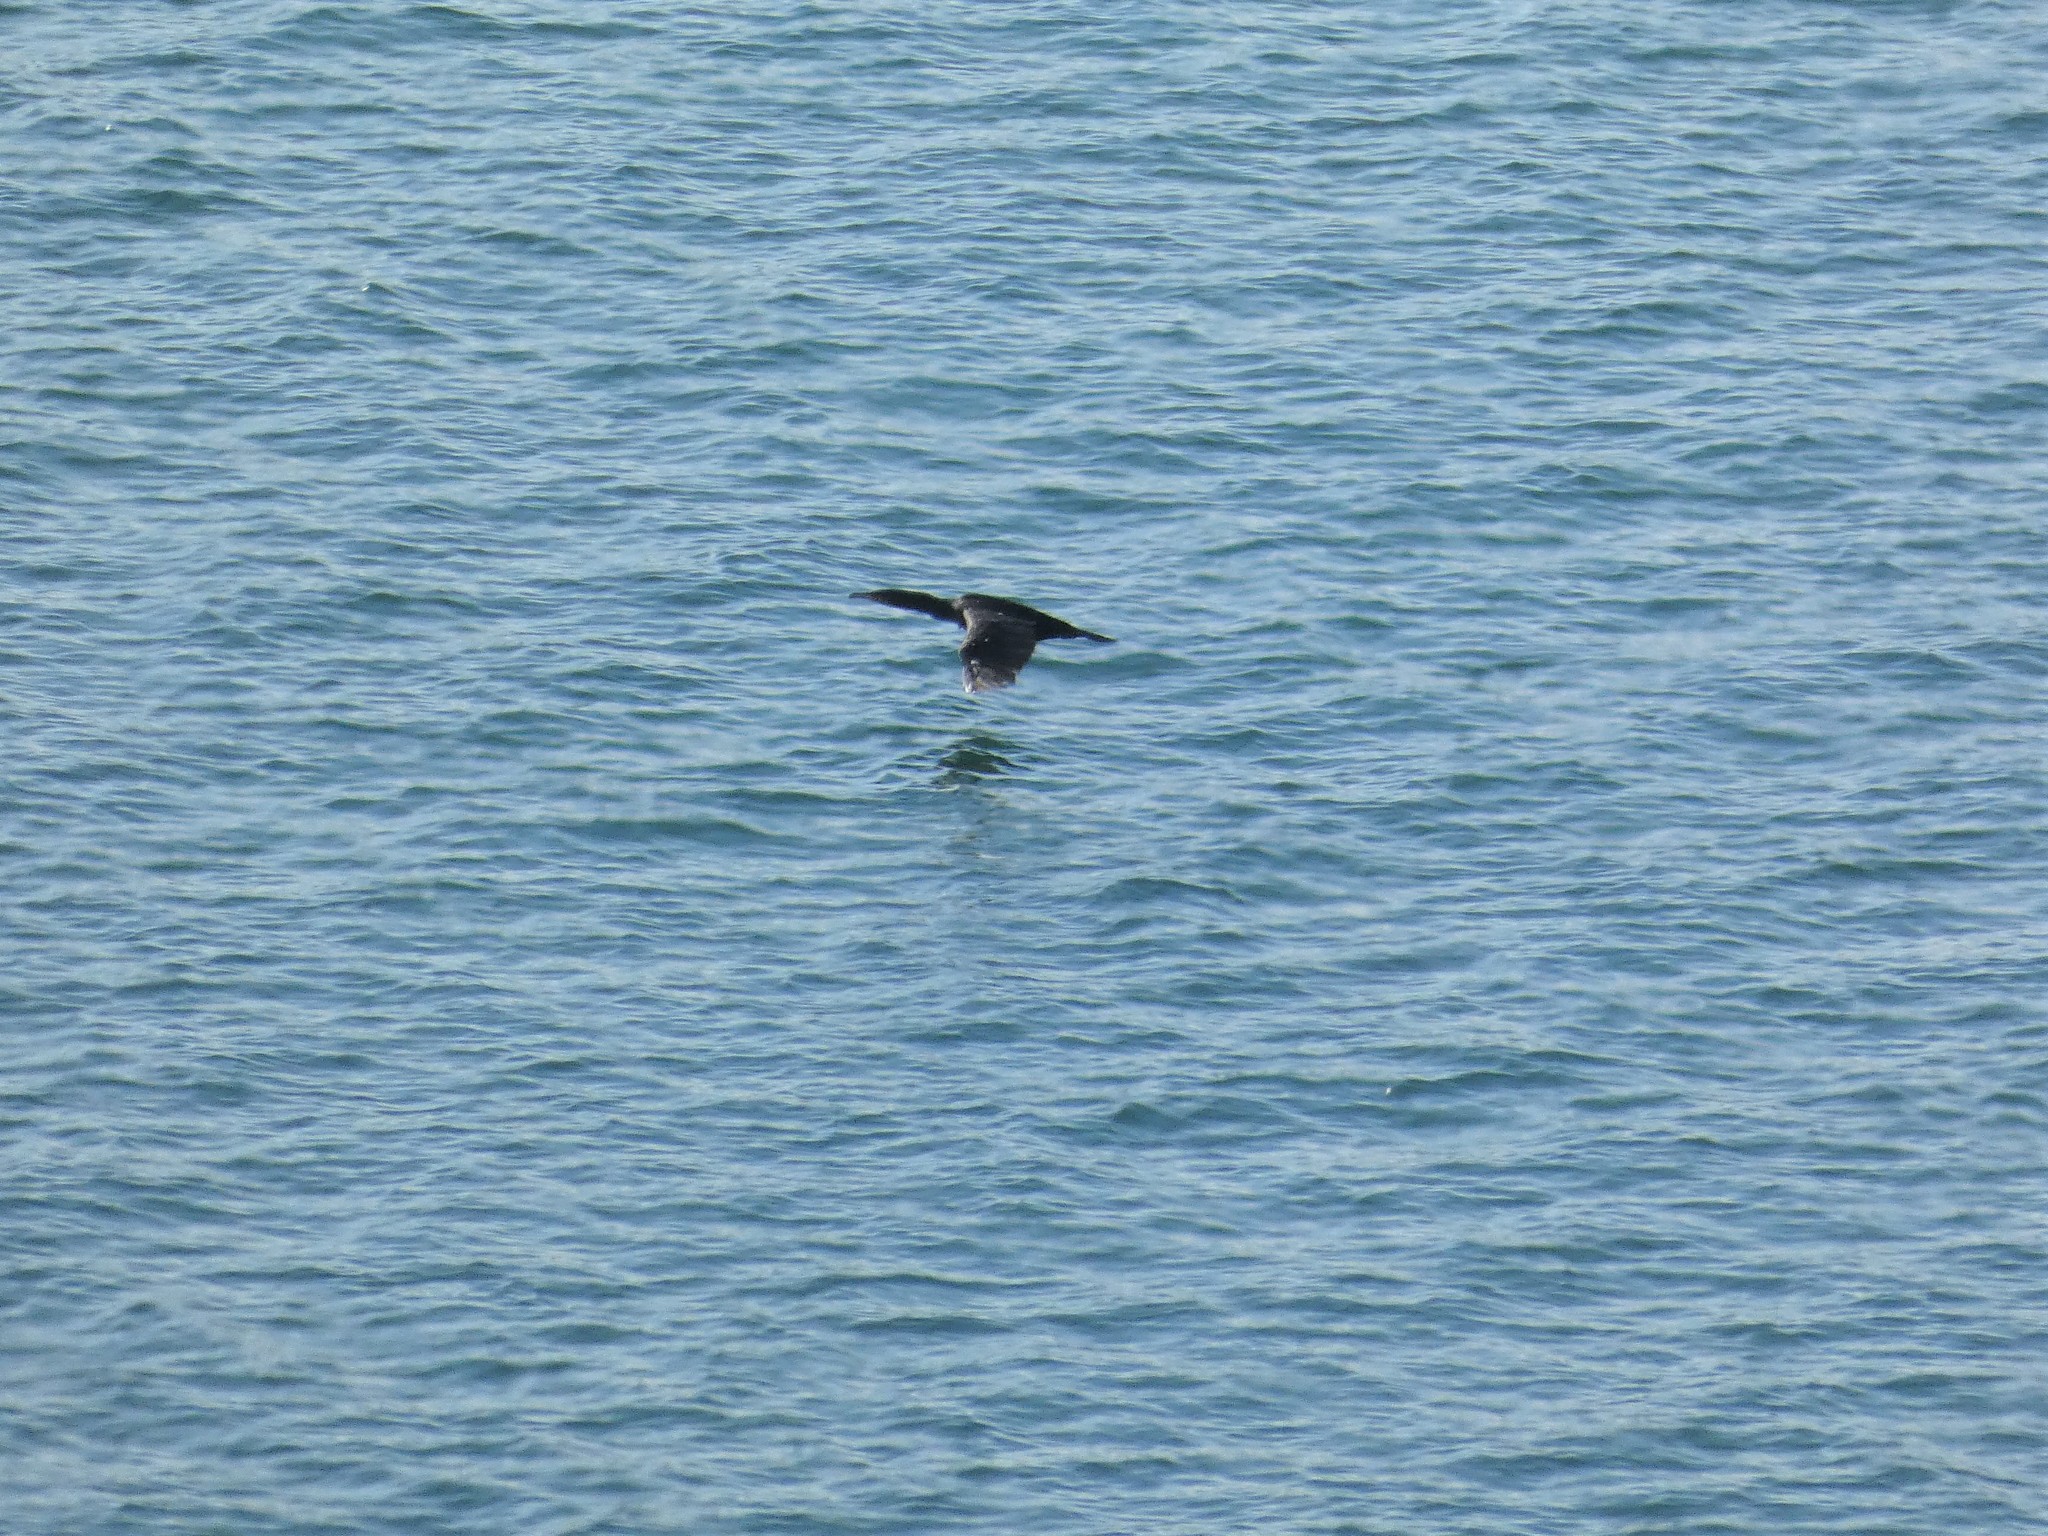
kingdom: Animalia
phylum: Chordata
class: Aves
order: Suliformes
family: Phalacrocoracidae
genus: Phalacrocorax
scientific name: Phalacrocorax aristotelis
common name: European shag
